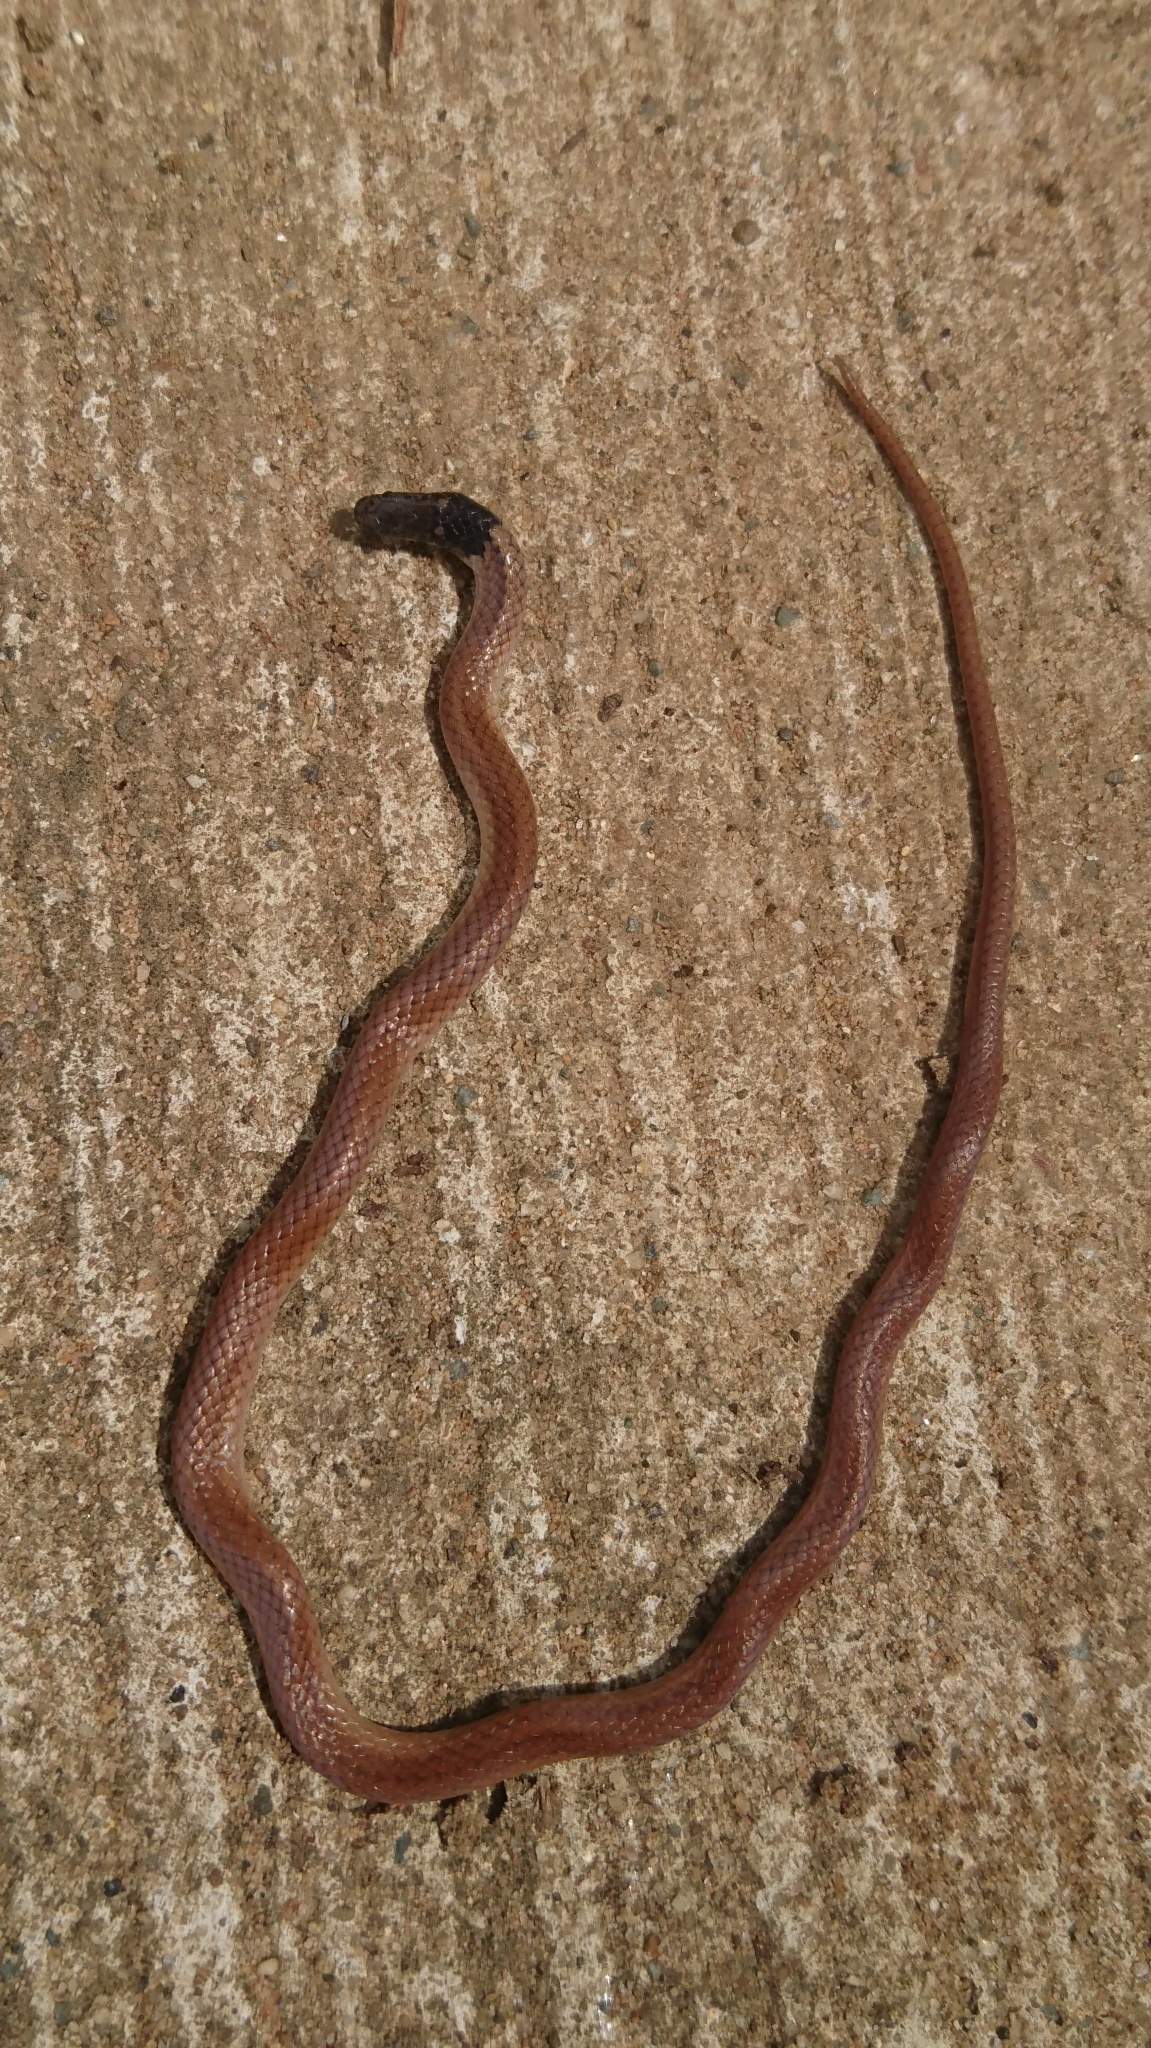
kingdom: Animalia
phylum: Chordata
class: Squamata
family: Atractaspididae
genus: Aparallactus
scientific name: Aparallactus capensis
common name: Cape centipede eater
